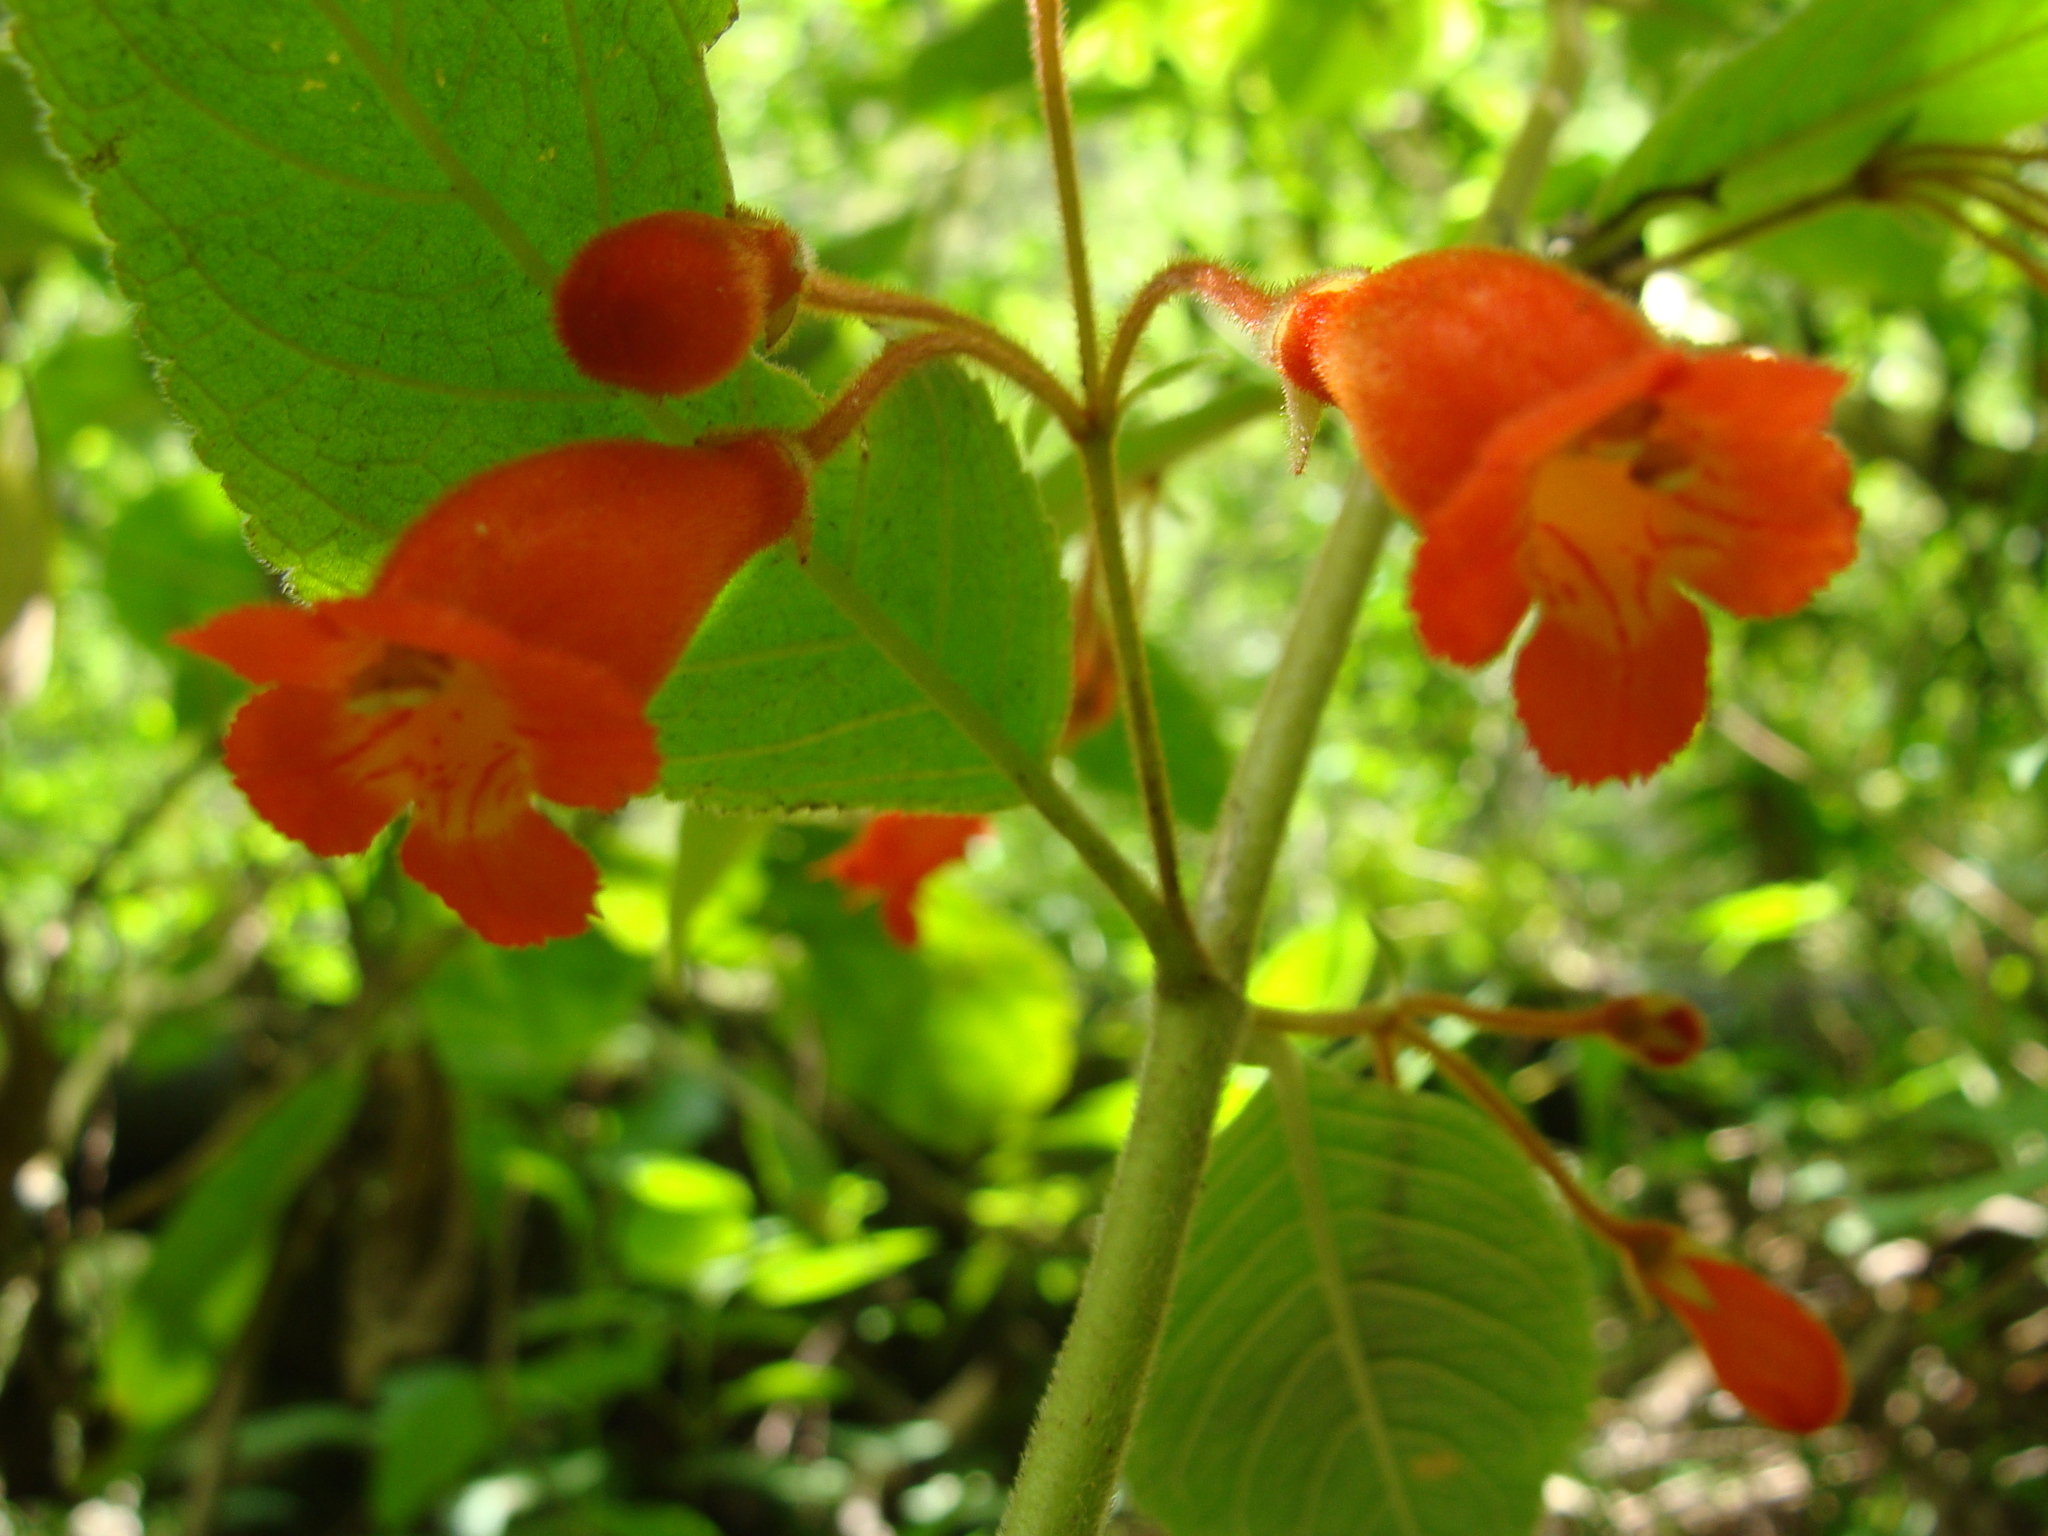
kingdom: Plantae
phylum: Tracheophyta
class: Magnoliopsida
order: Lamiales
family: Gesneriaceae
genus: Moussonia
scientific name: Moussonia deppeana
